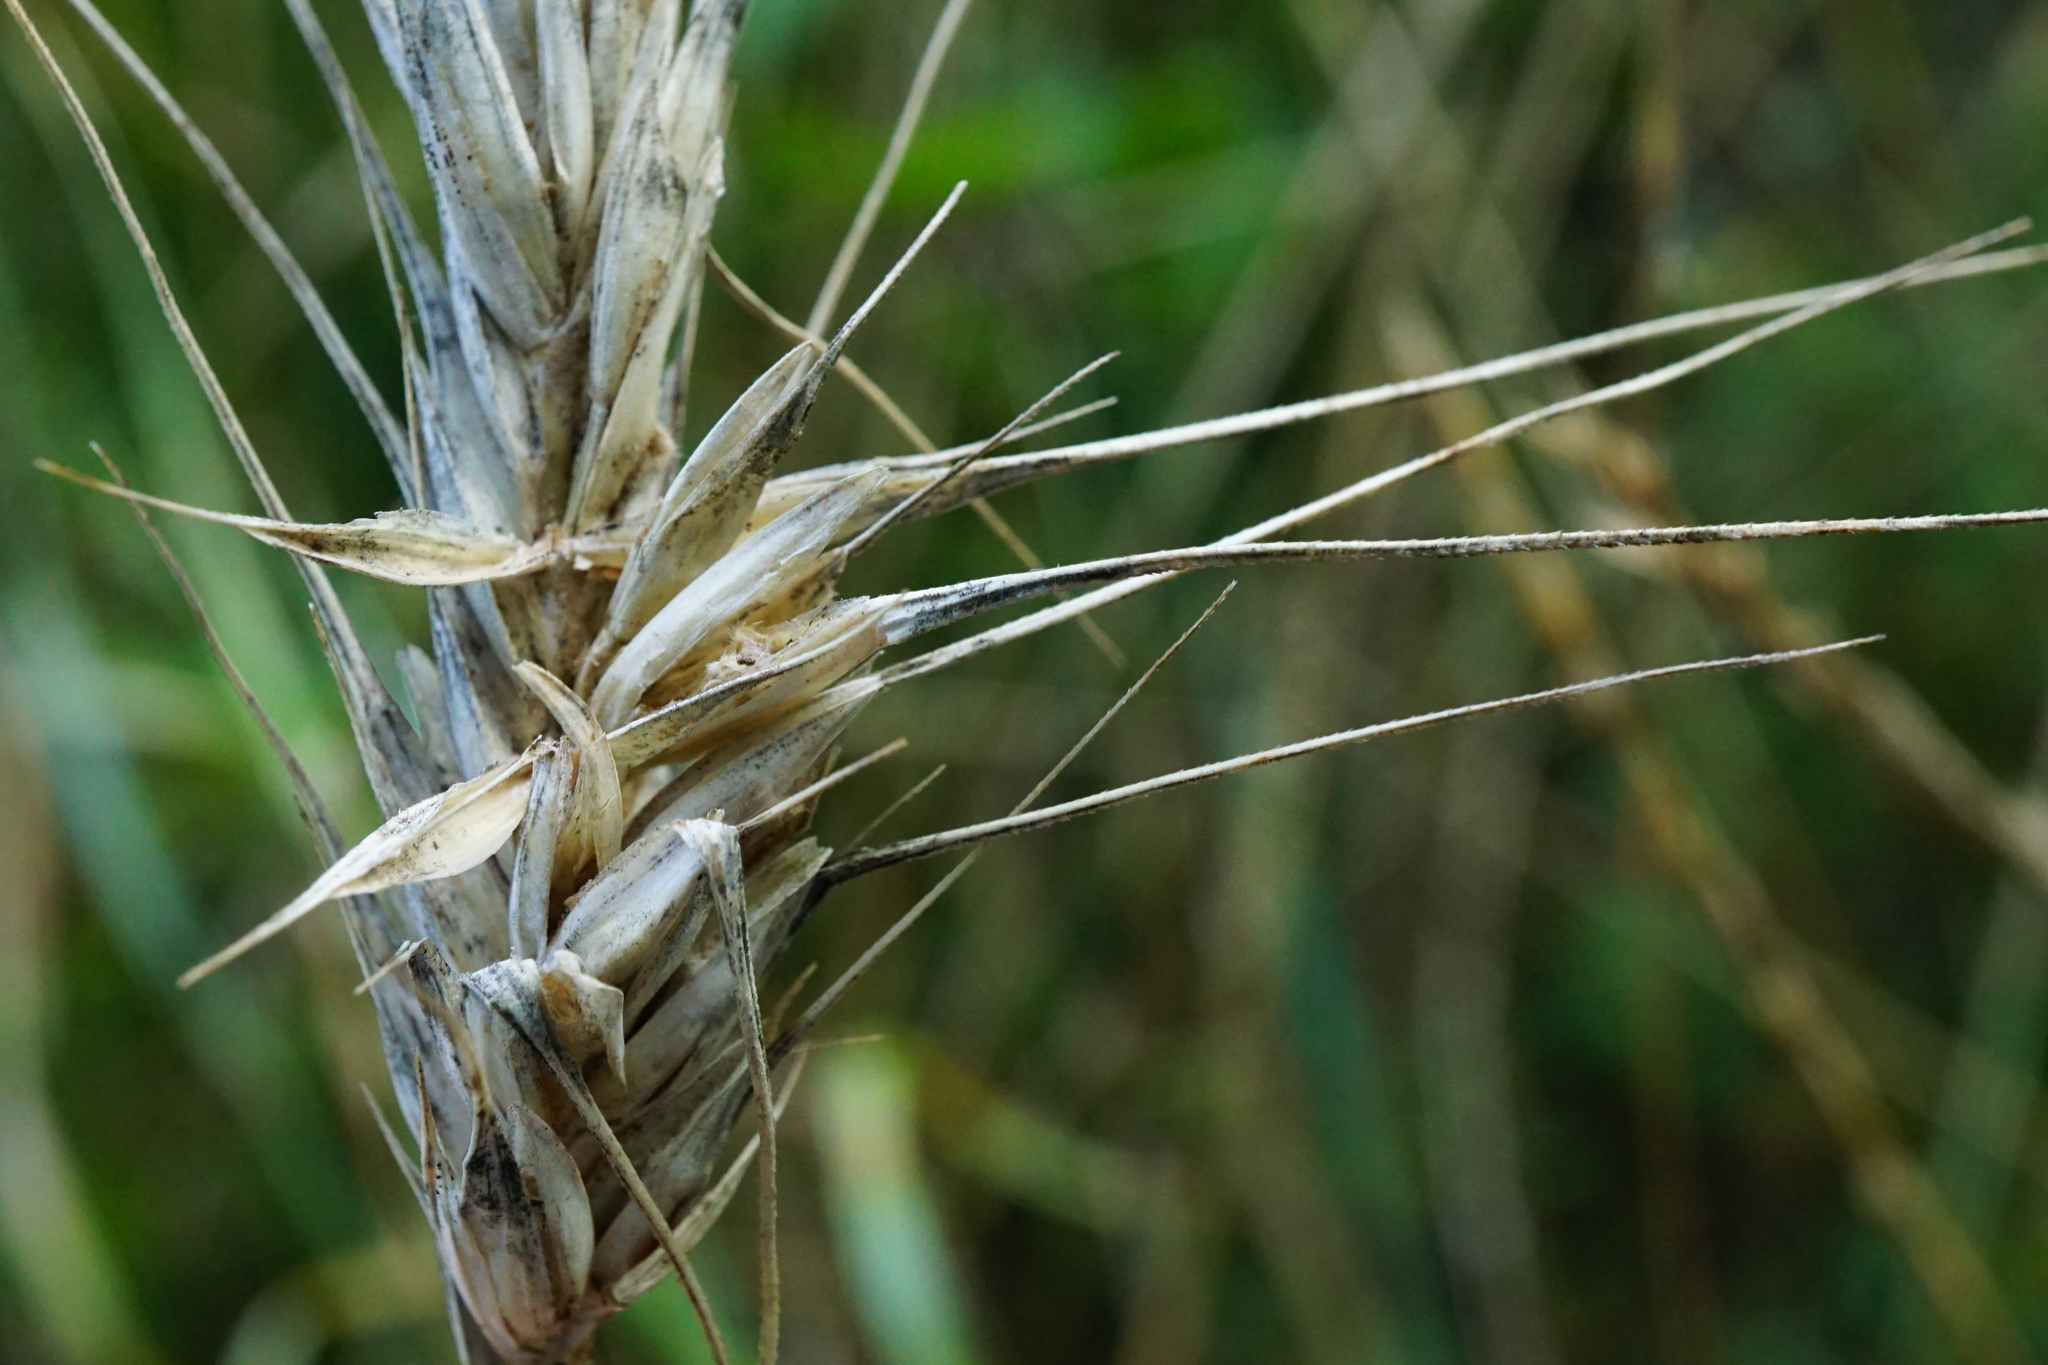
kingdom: Plantae
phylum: Tracheophyta
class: Liliopsida
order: Poales
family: Poaceae
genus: Secale
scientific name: Secale cereale
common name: Rye
